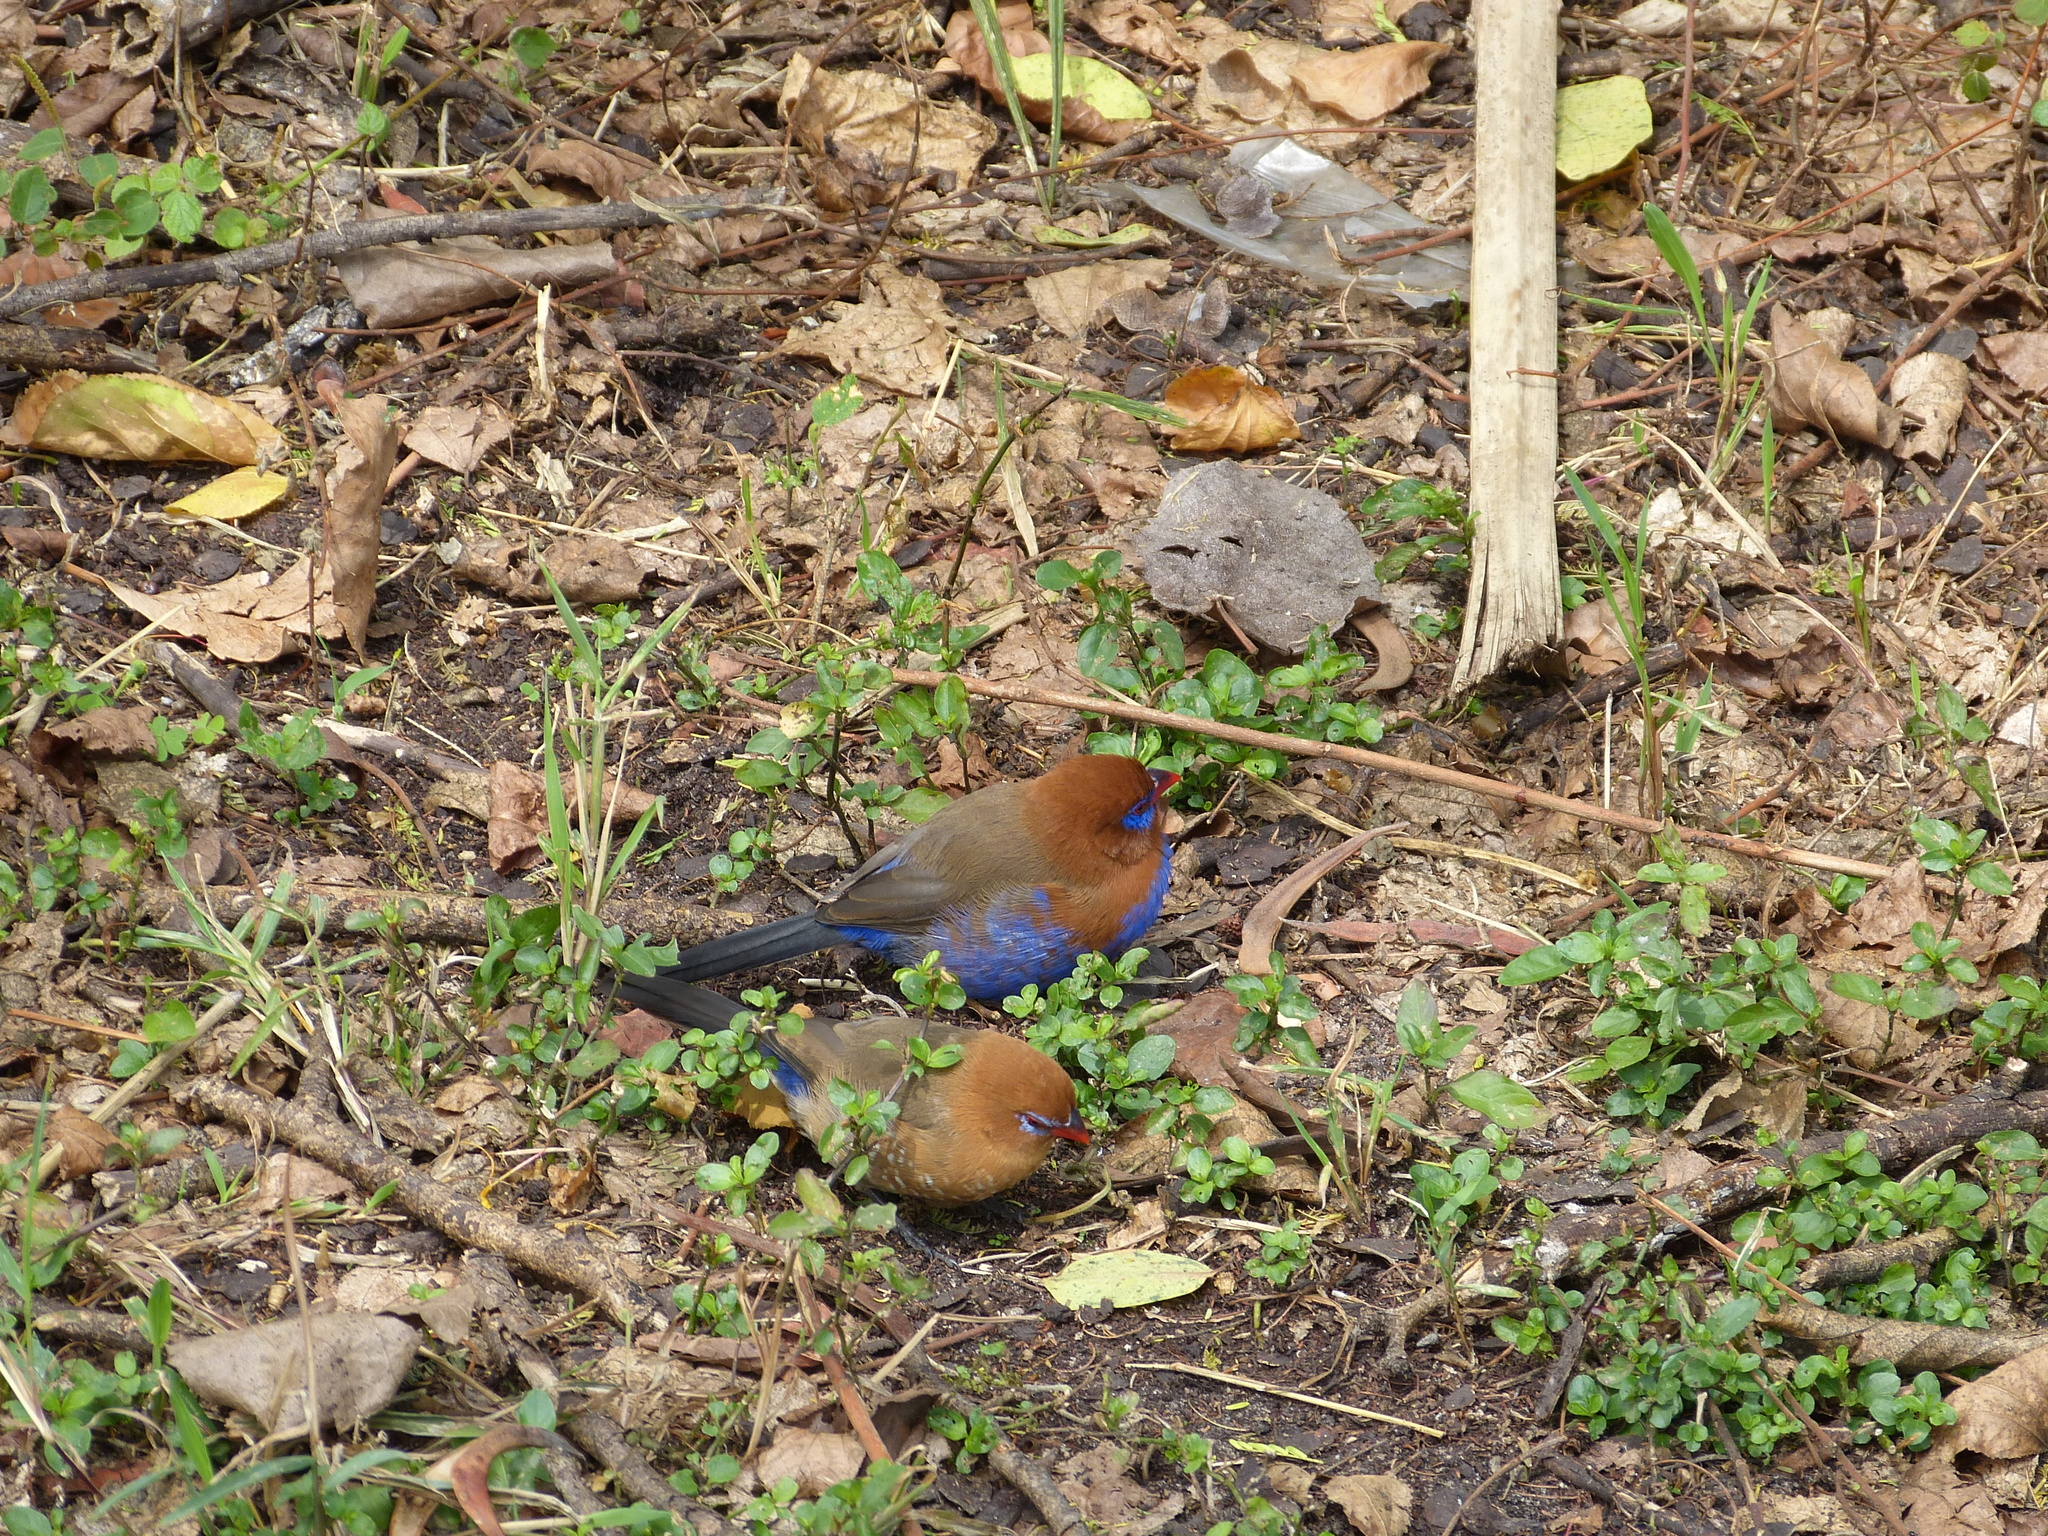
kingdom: Animalia
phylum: Chordata
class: Aves
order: Passeriformes
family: Estrildidae
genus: Uraeginthus
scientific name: Uraeginthus ianthinogaster
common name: Purple grenadier
